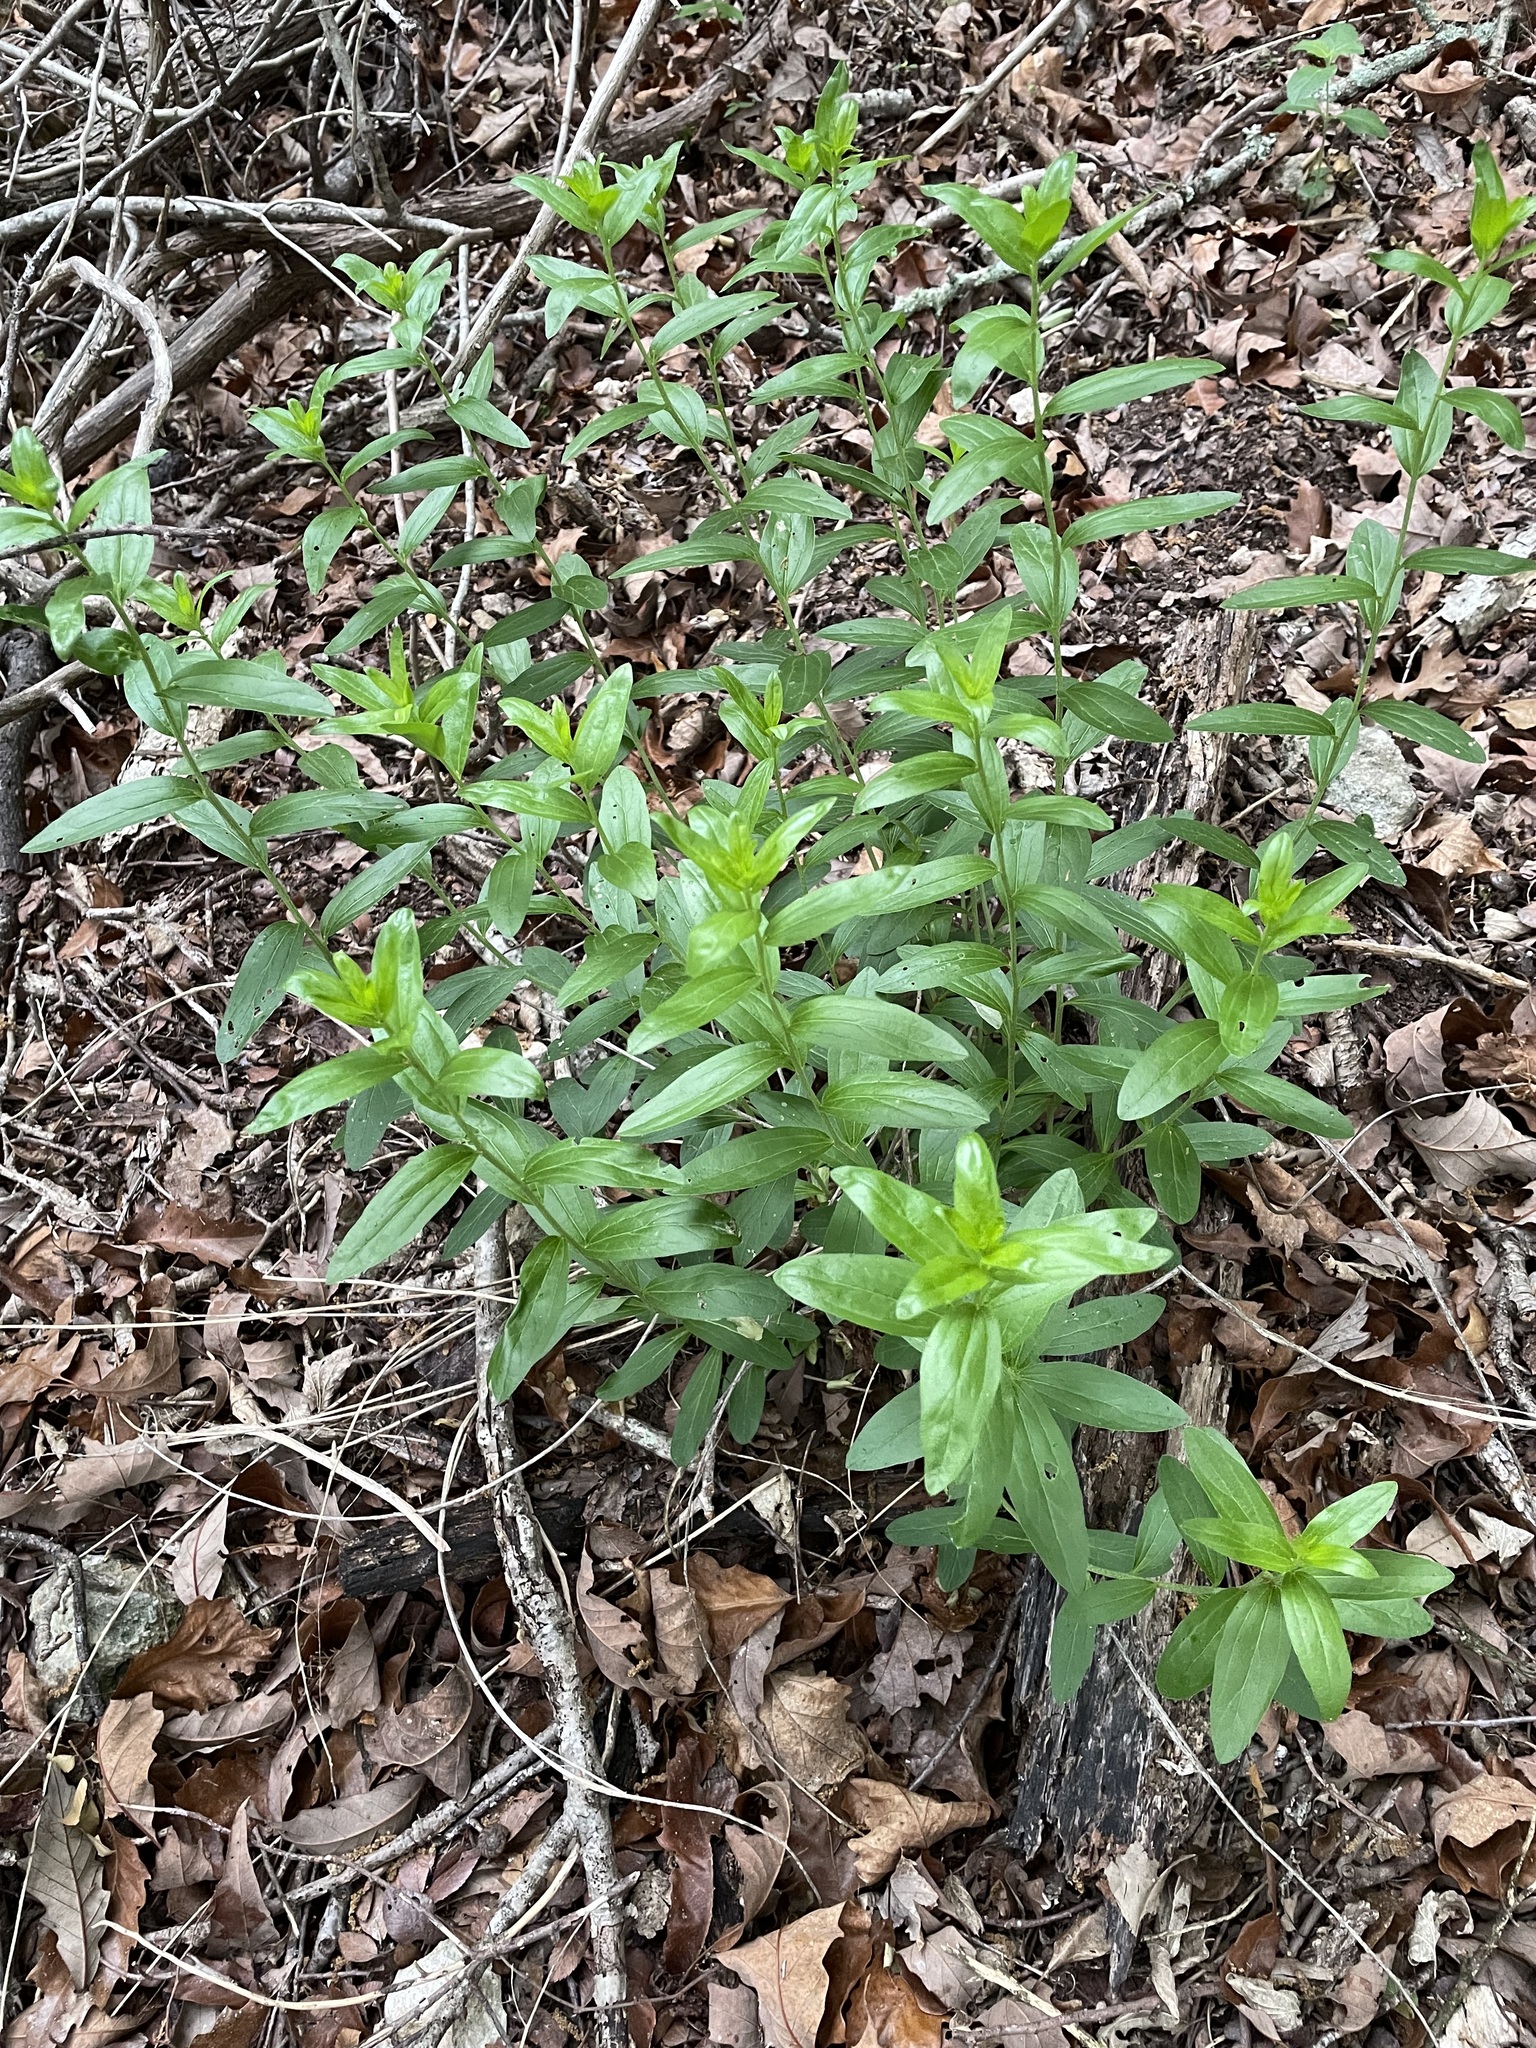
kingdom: Plantae
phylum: Tracheophyta
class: Magnoliopsida
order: Malpighiales
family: Euphorbiaceae
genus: Ditaxis
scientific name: Ditaxis mercurialina
